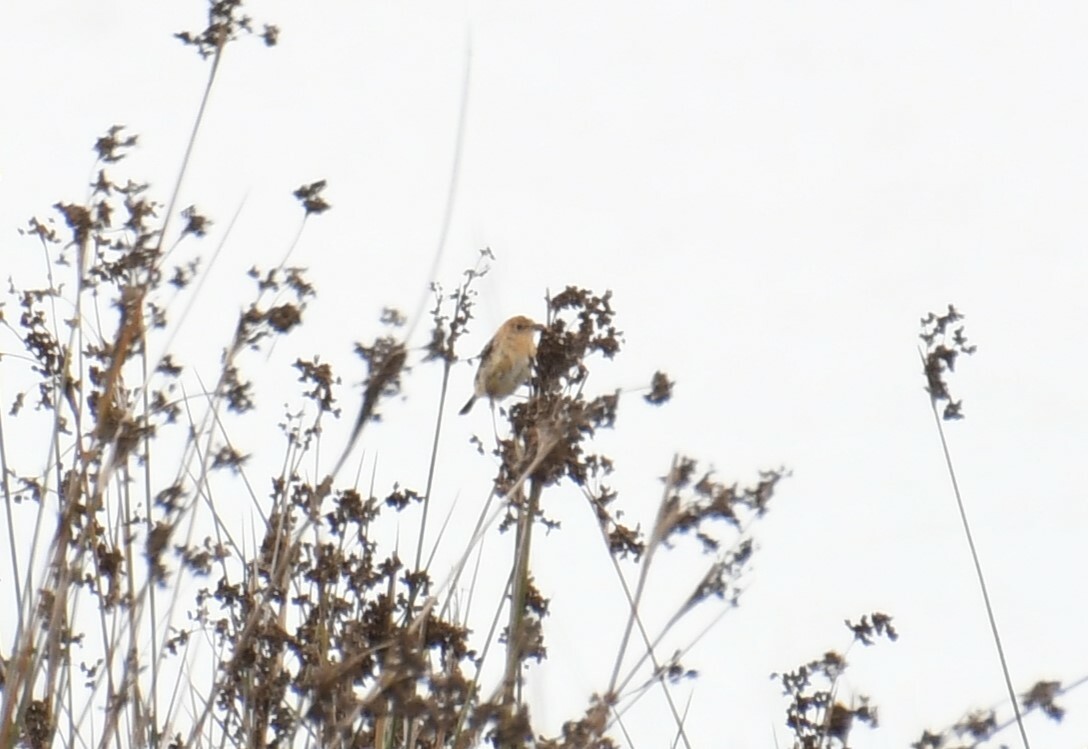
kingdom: Animalia
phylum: Chordata
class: Aves
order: Passeriformes
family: Cisticolidae
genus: Cisticola
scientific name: Cisticola exilis
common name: Golden-headed cisticola
